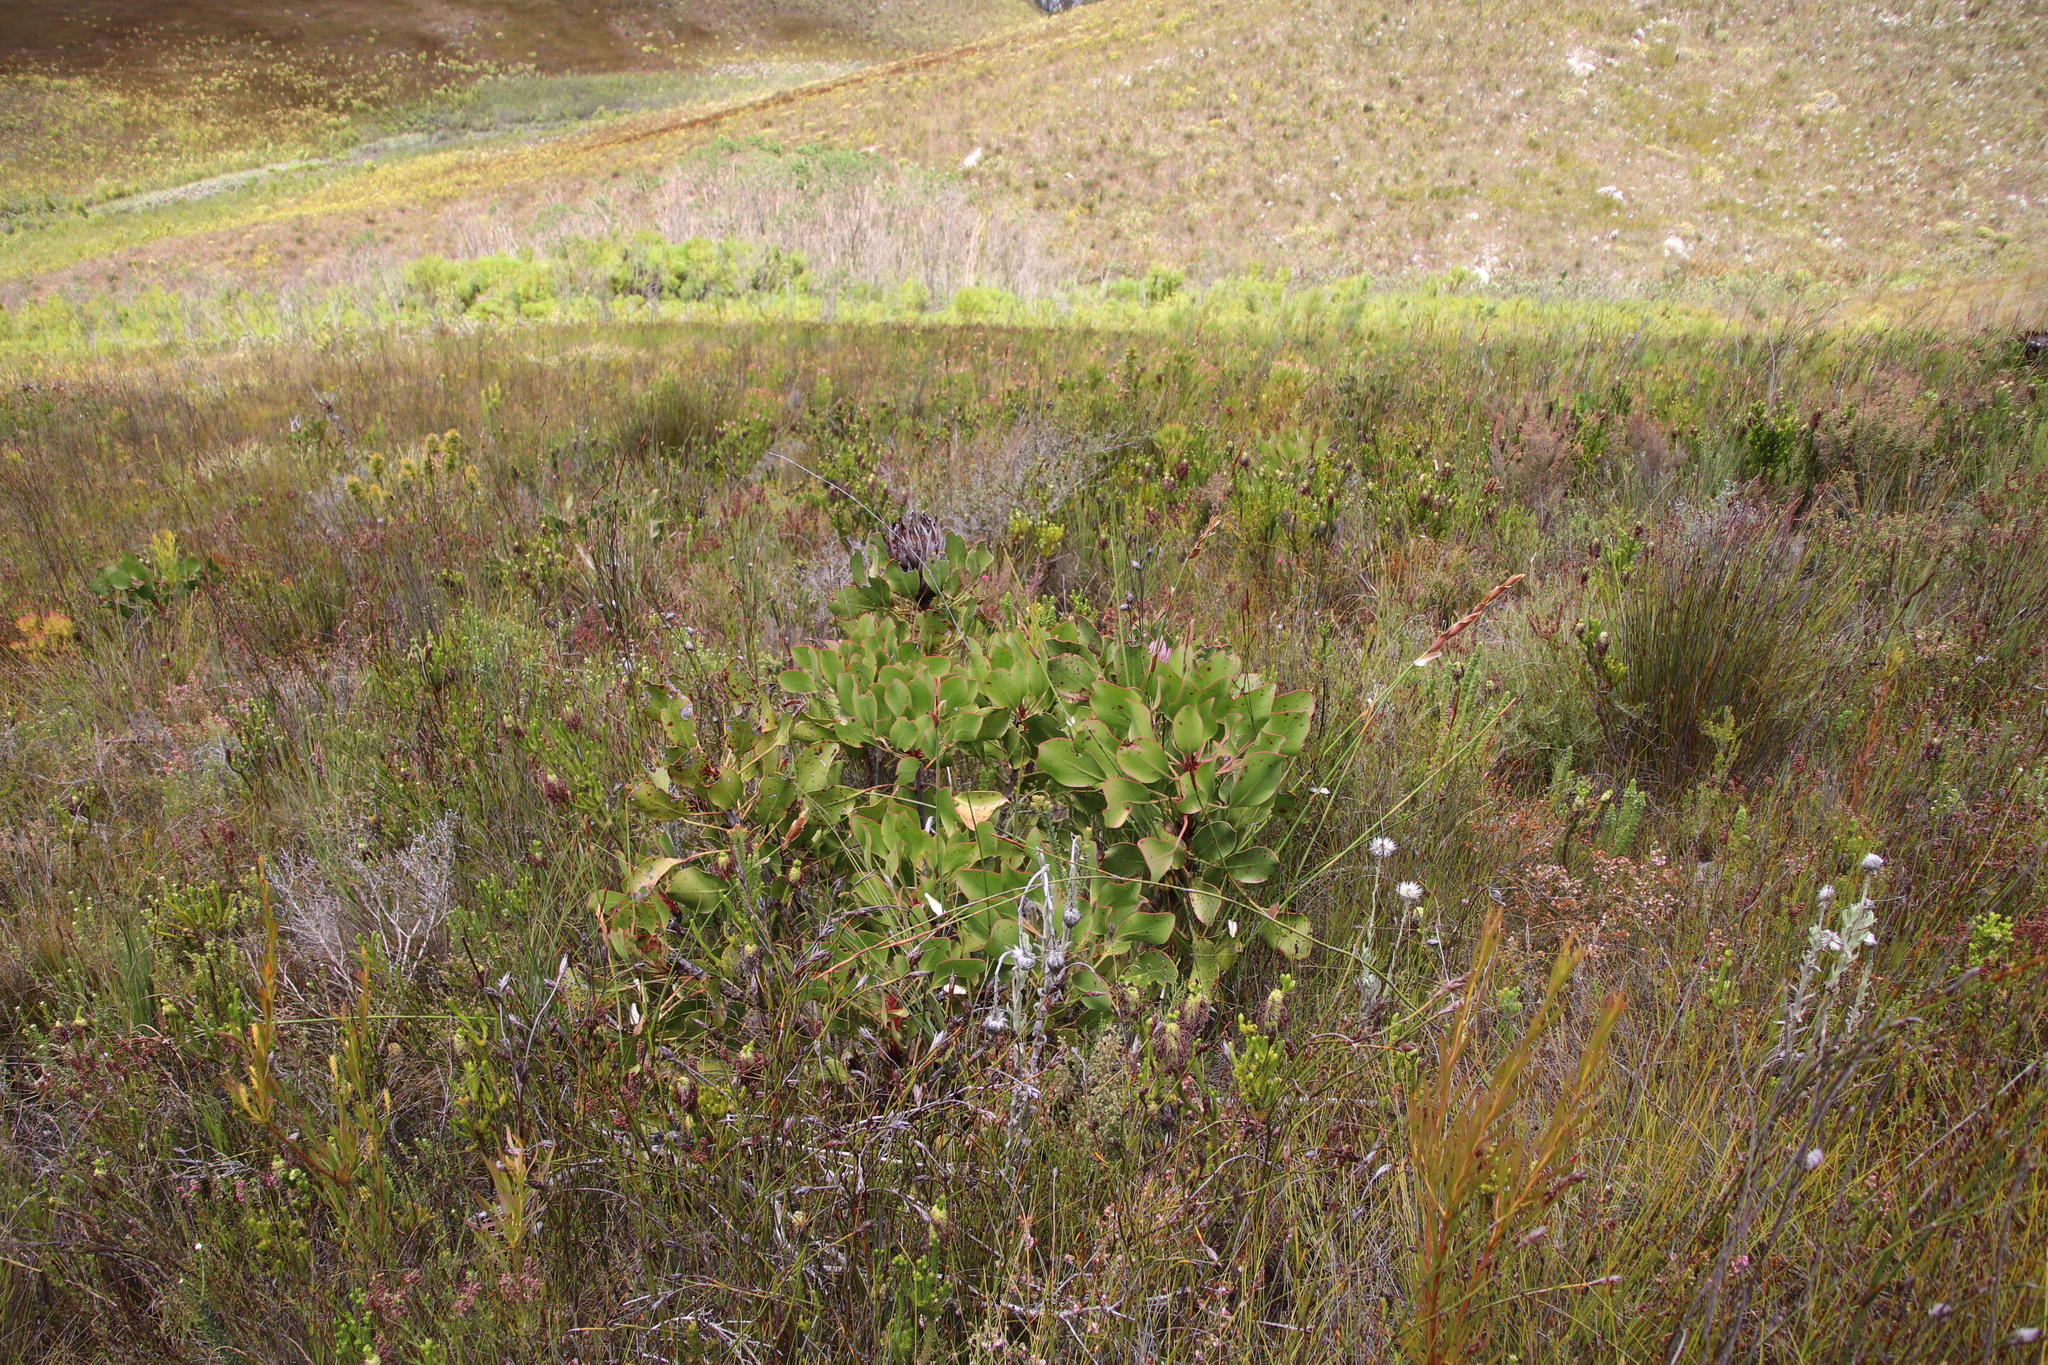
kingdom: Plantae
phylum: Tracheophyta
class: Magnoliopsida
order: Proteales
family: Proteaceae
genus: Protea
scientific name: Protea cynaroides
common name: King protea
